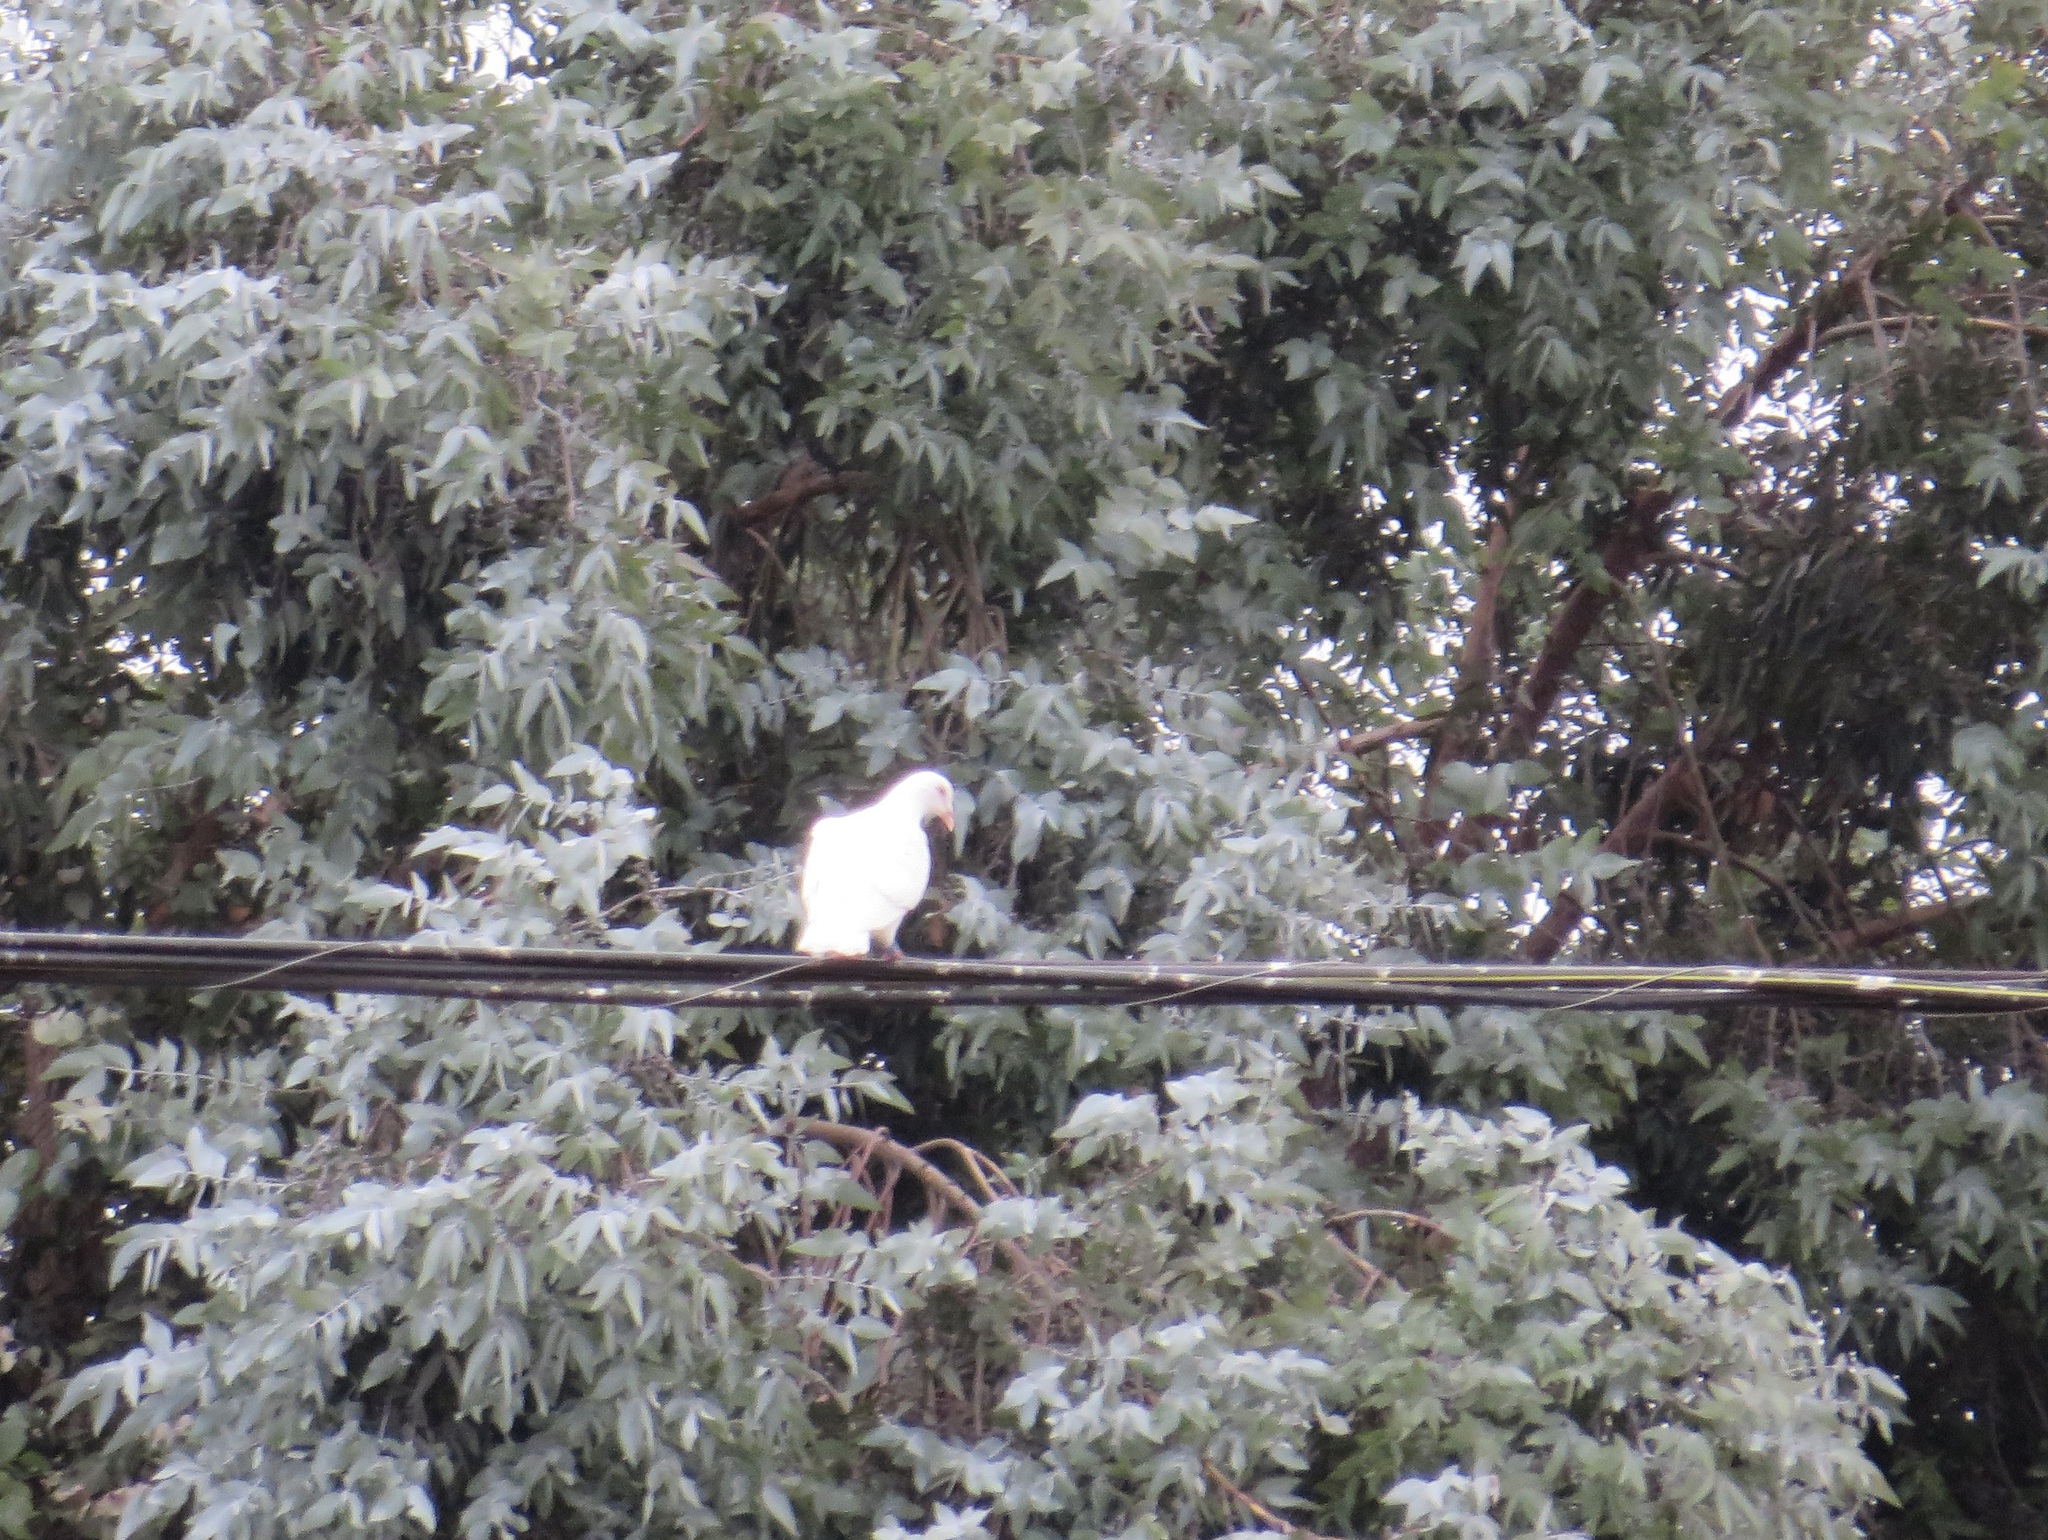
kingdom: Animalia
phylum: Chordata
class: Aves
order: Columbiformes
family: Columbidae
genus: Columba
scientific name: Columba livia
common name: Rock pigeon
